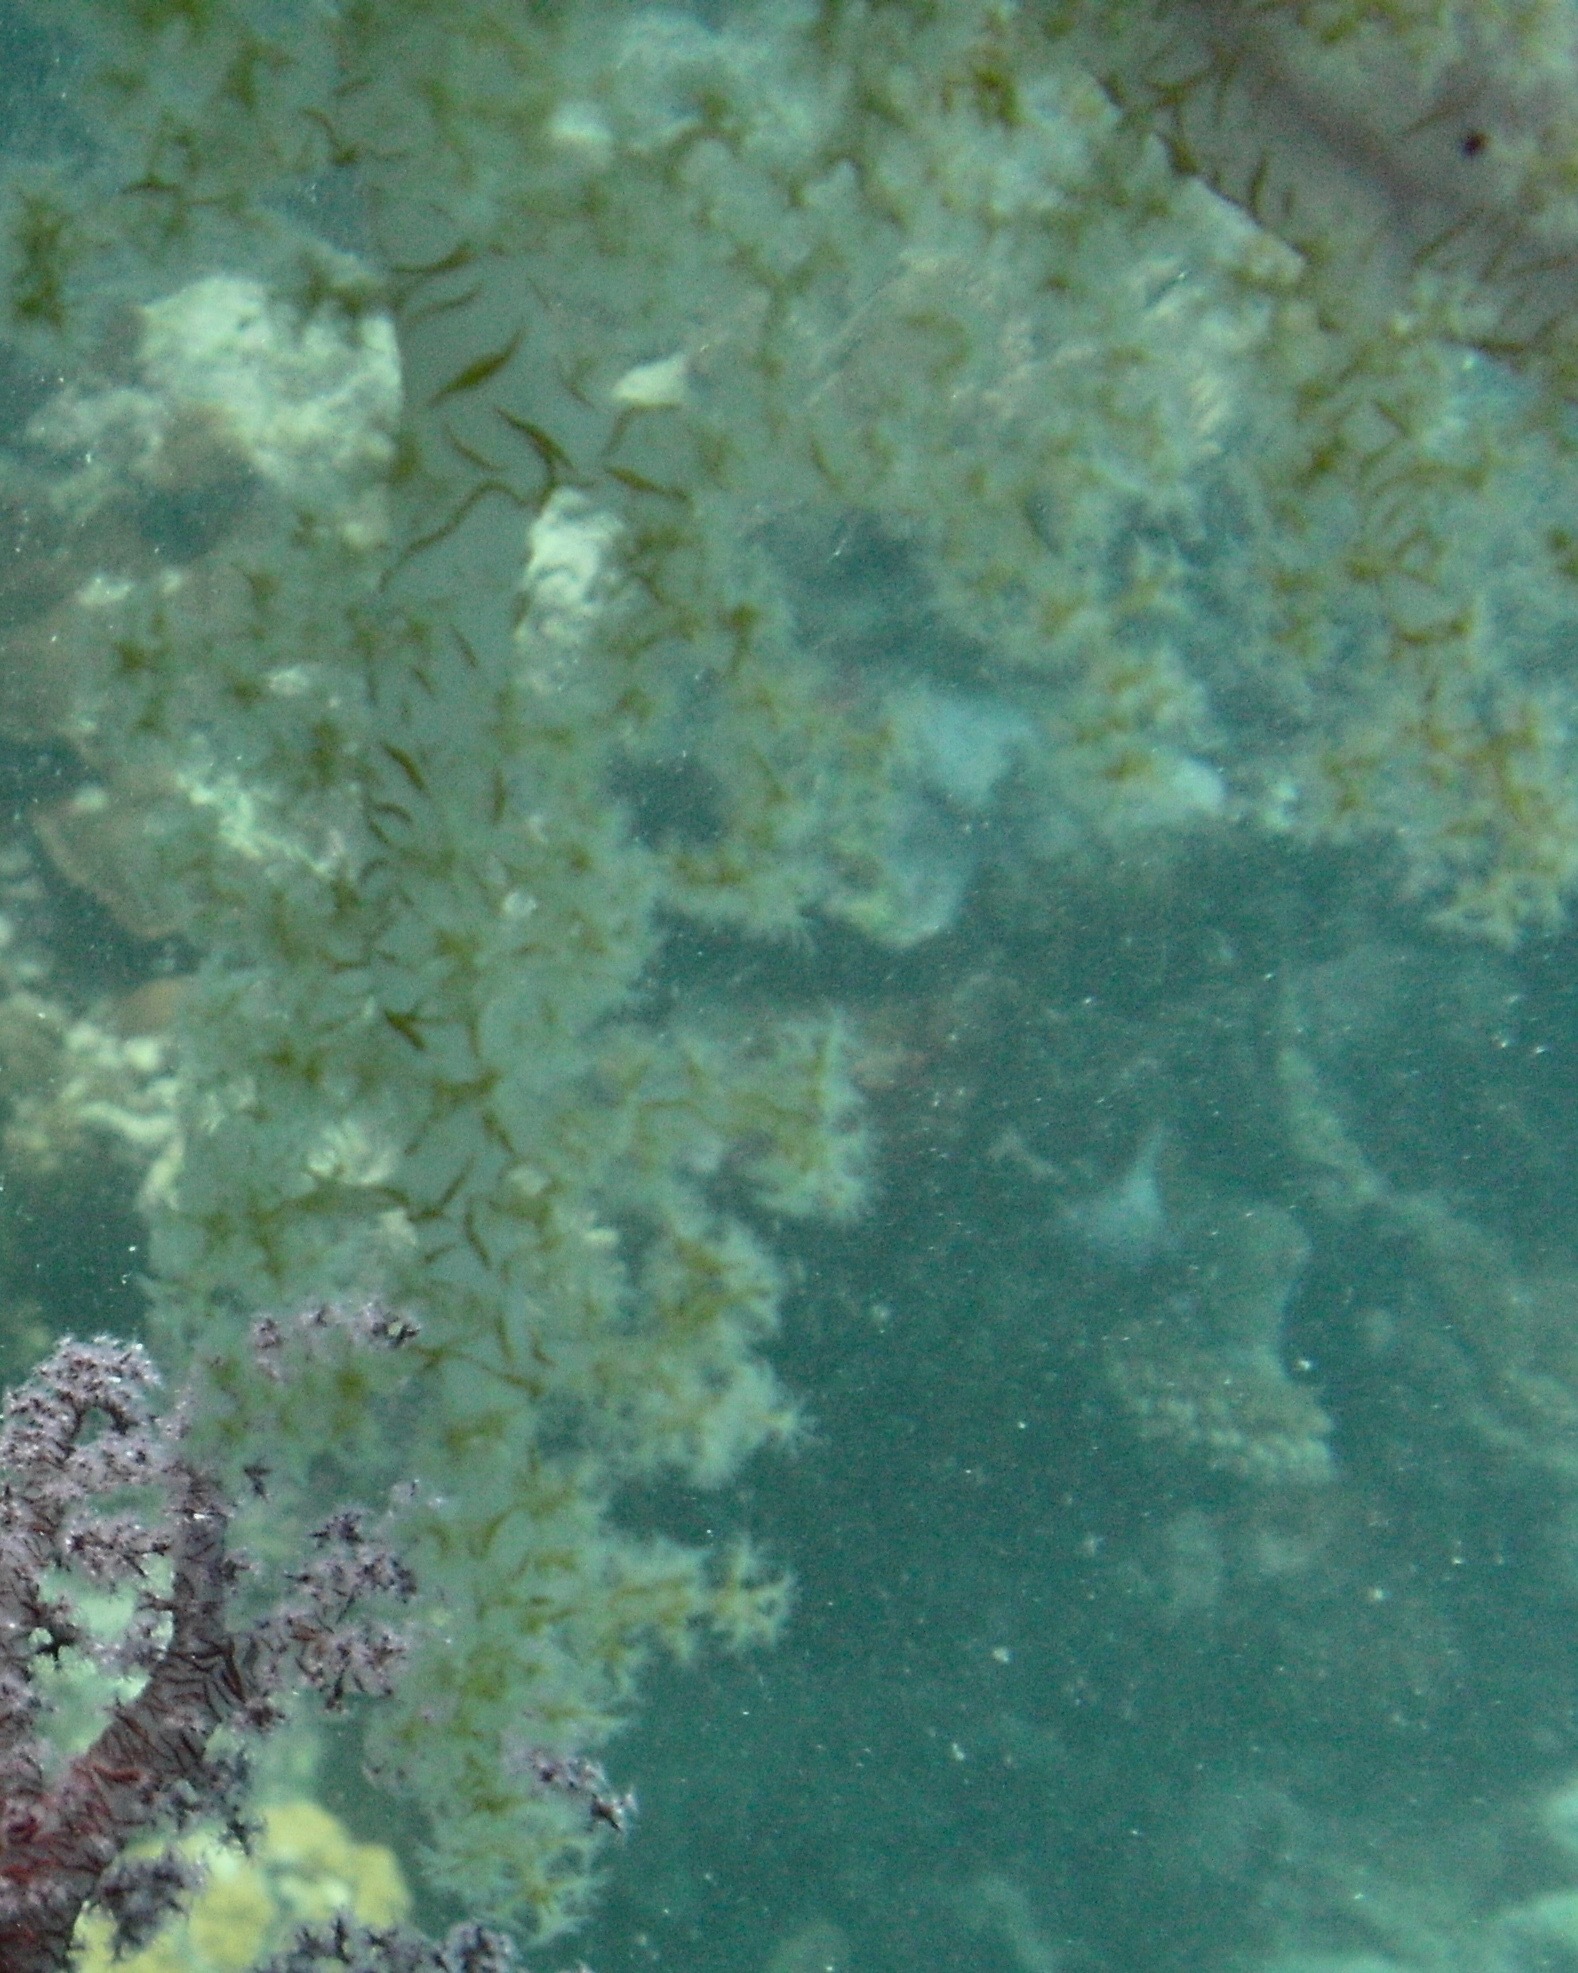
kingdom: Animalia
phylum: Cnidaria
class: Anthozoa
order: Malacalcyonacea
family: Nephtheidae
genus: Dendronephthya
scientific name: Dendronephthya hemprichi
